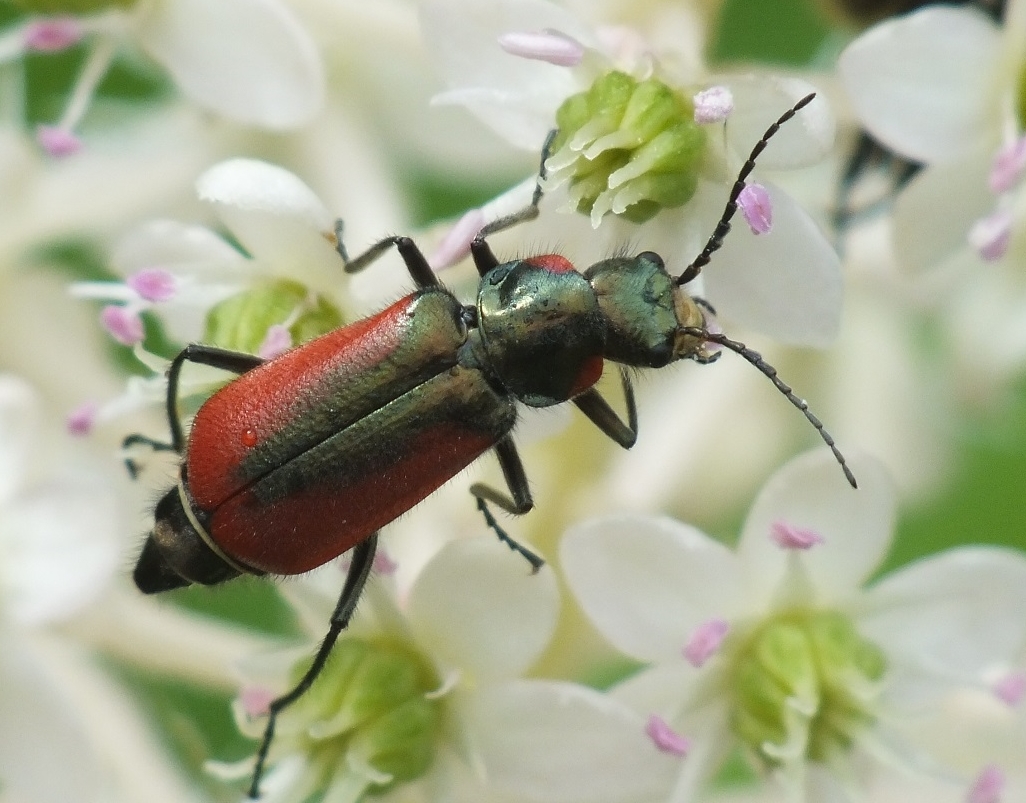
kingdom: Animalia
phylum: Arthropoda
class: Insecta
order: Coleoptera
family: Melyridae
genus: Malachius
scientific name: Malachius aeneus
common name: Scarlet malachite beetle
